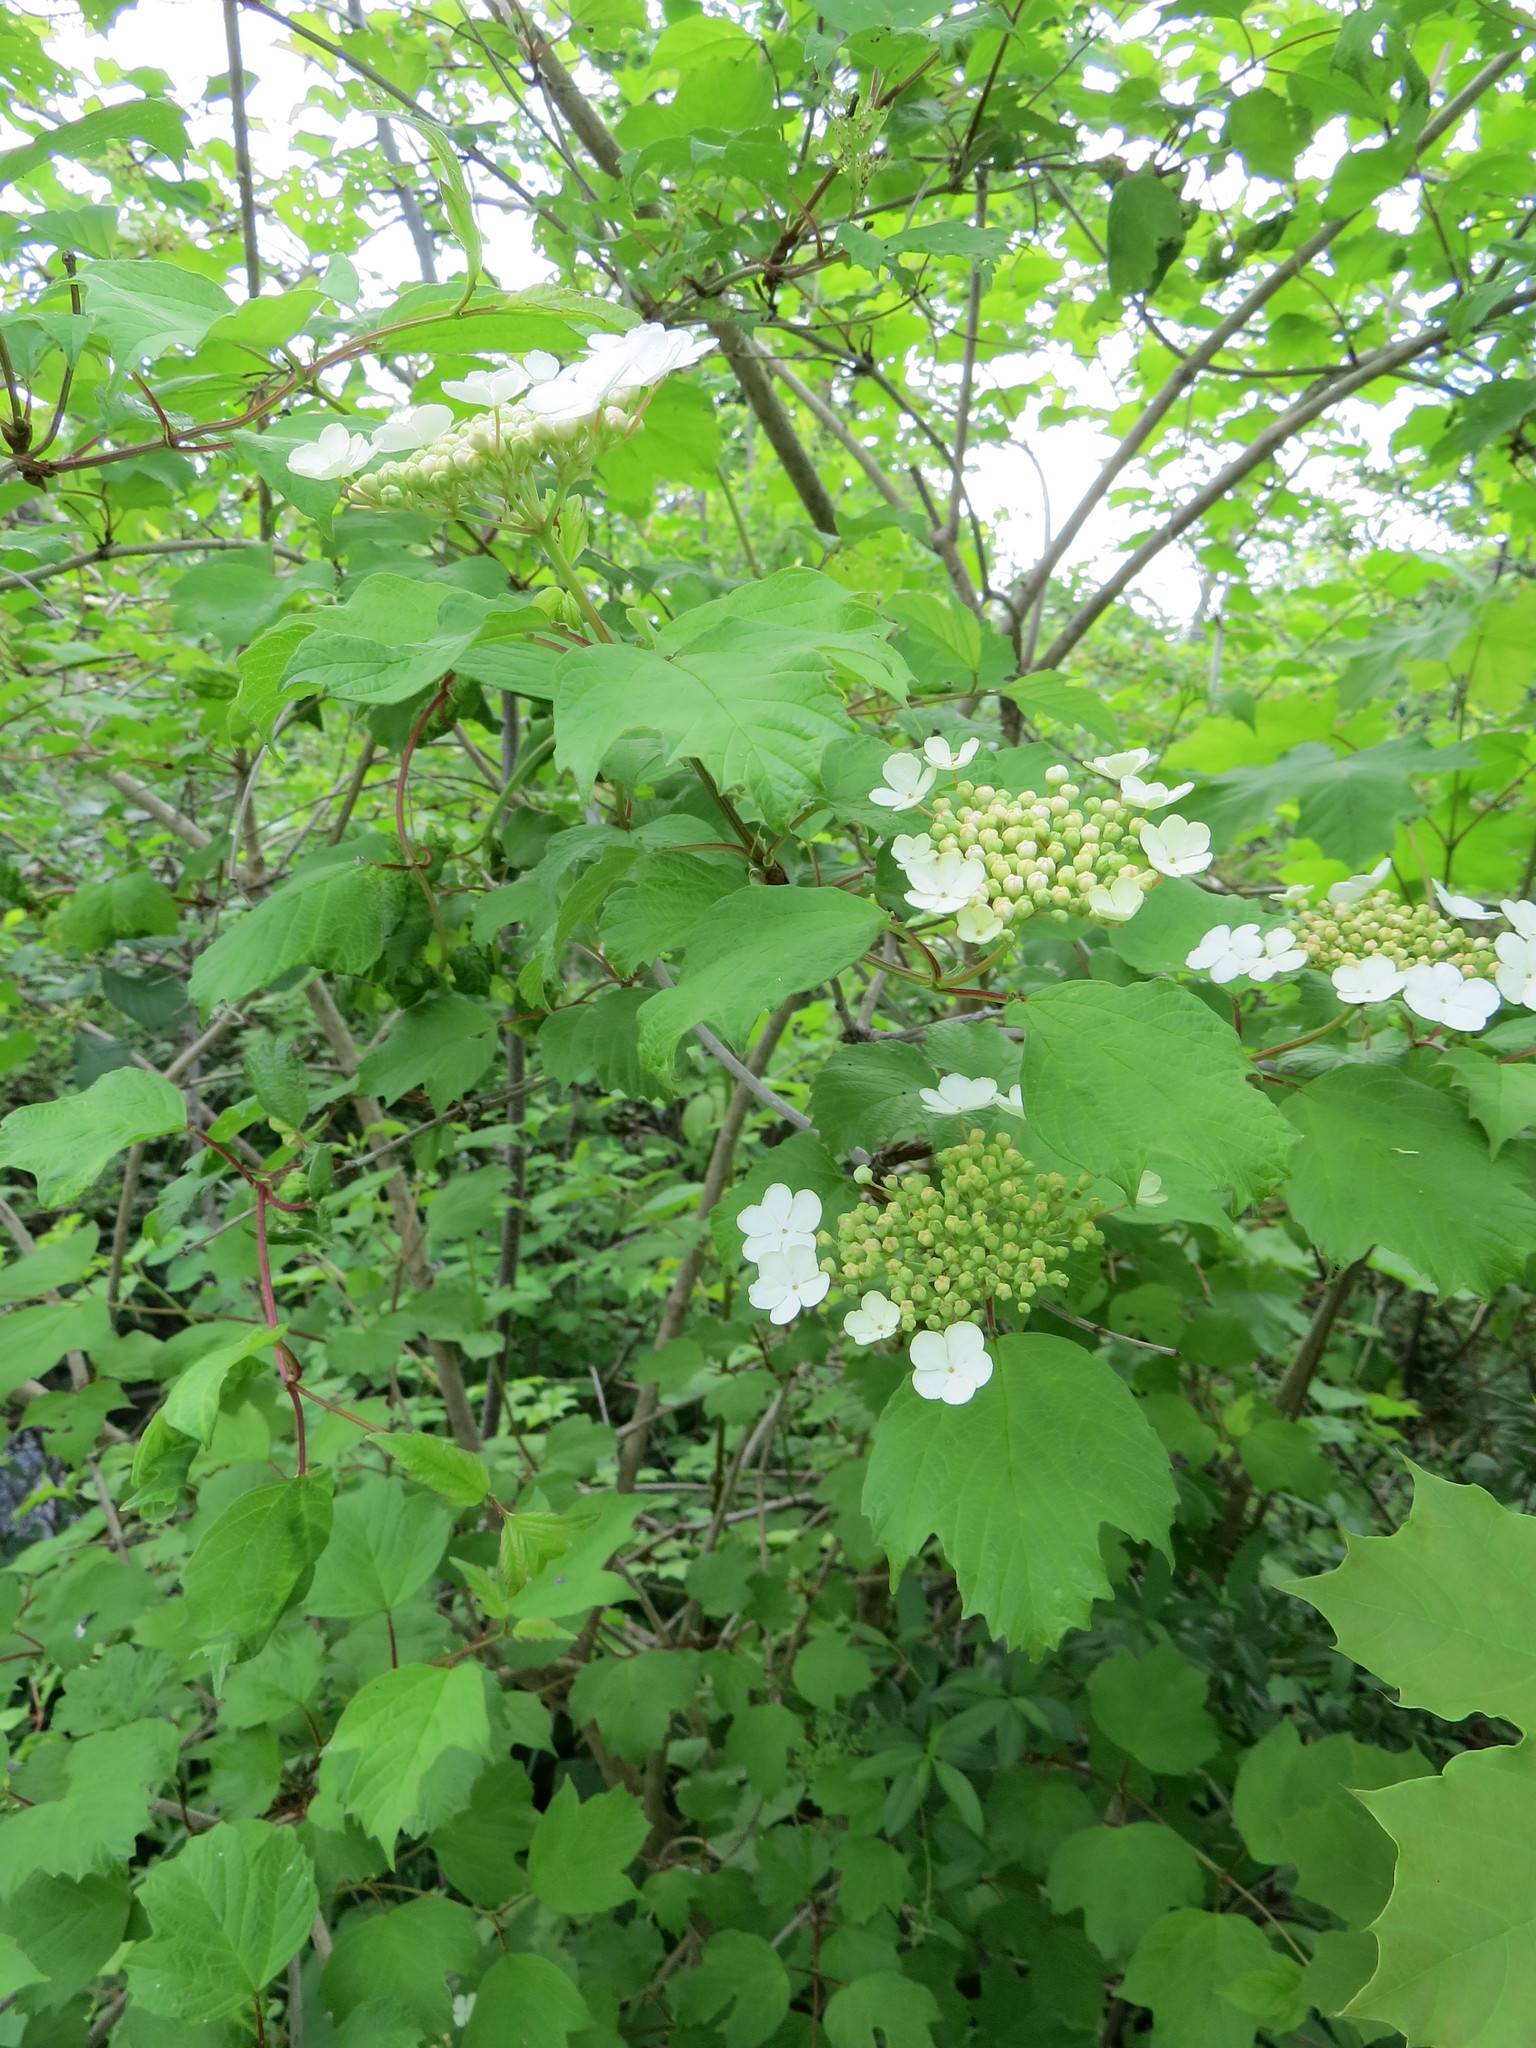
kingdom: Plantae
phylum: Tracheophyta
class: Magnoliopsida
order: Dipsacales
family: Viburnaceae
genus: Viburnum
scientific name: Viburnum opulus
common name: Guelder-rose
